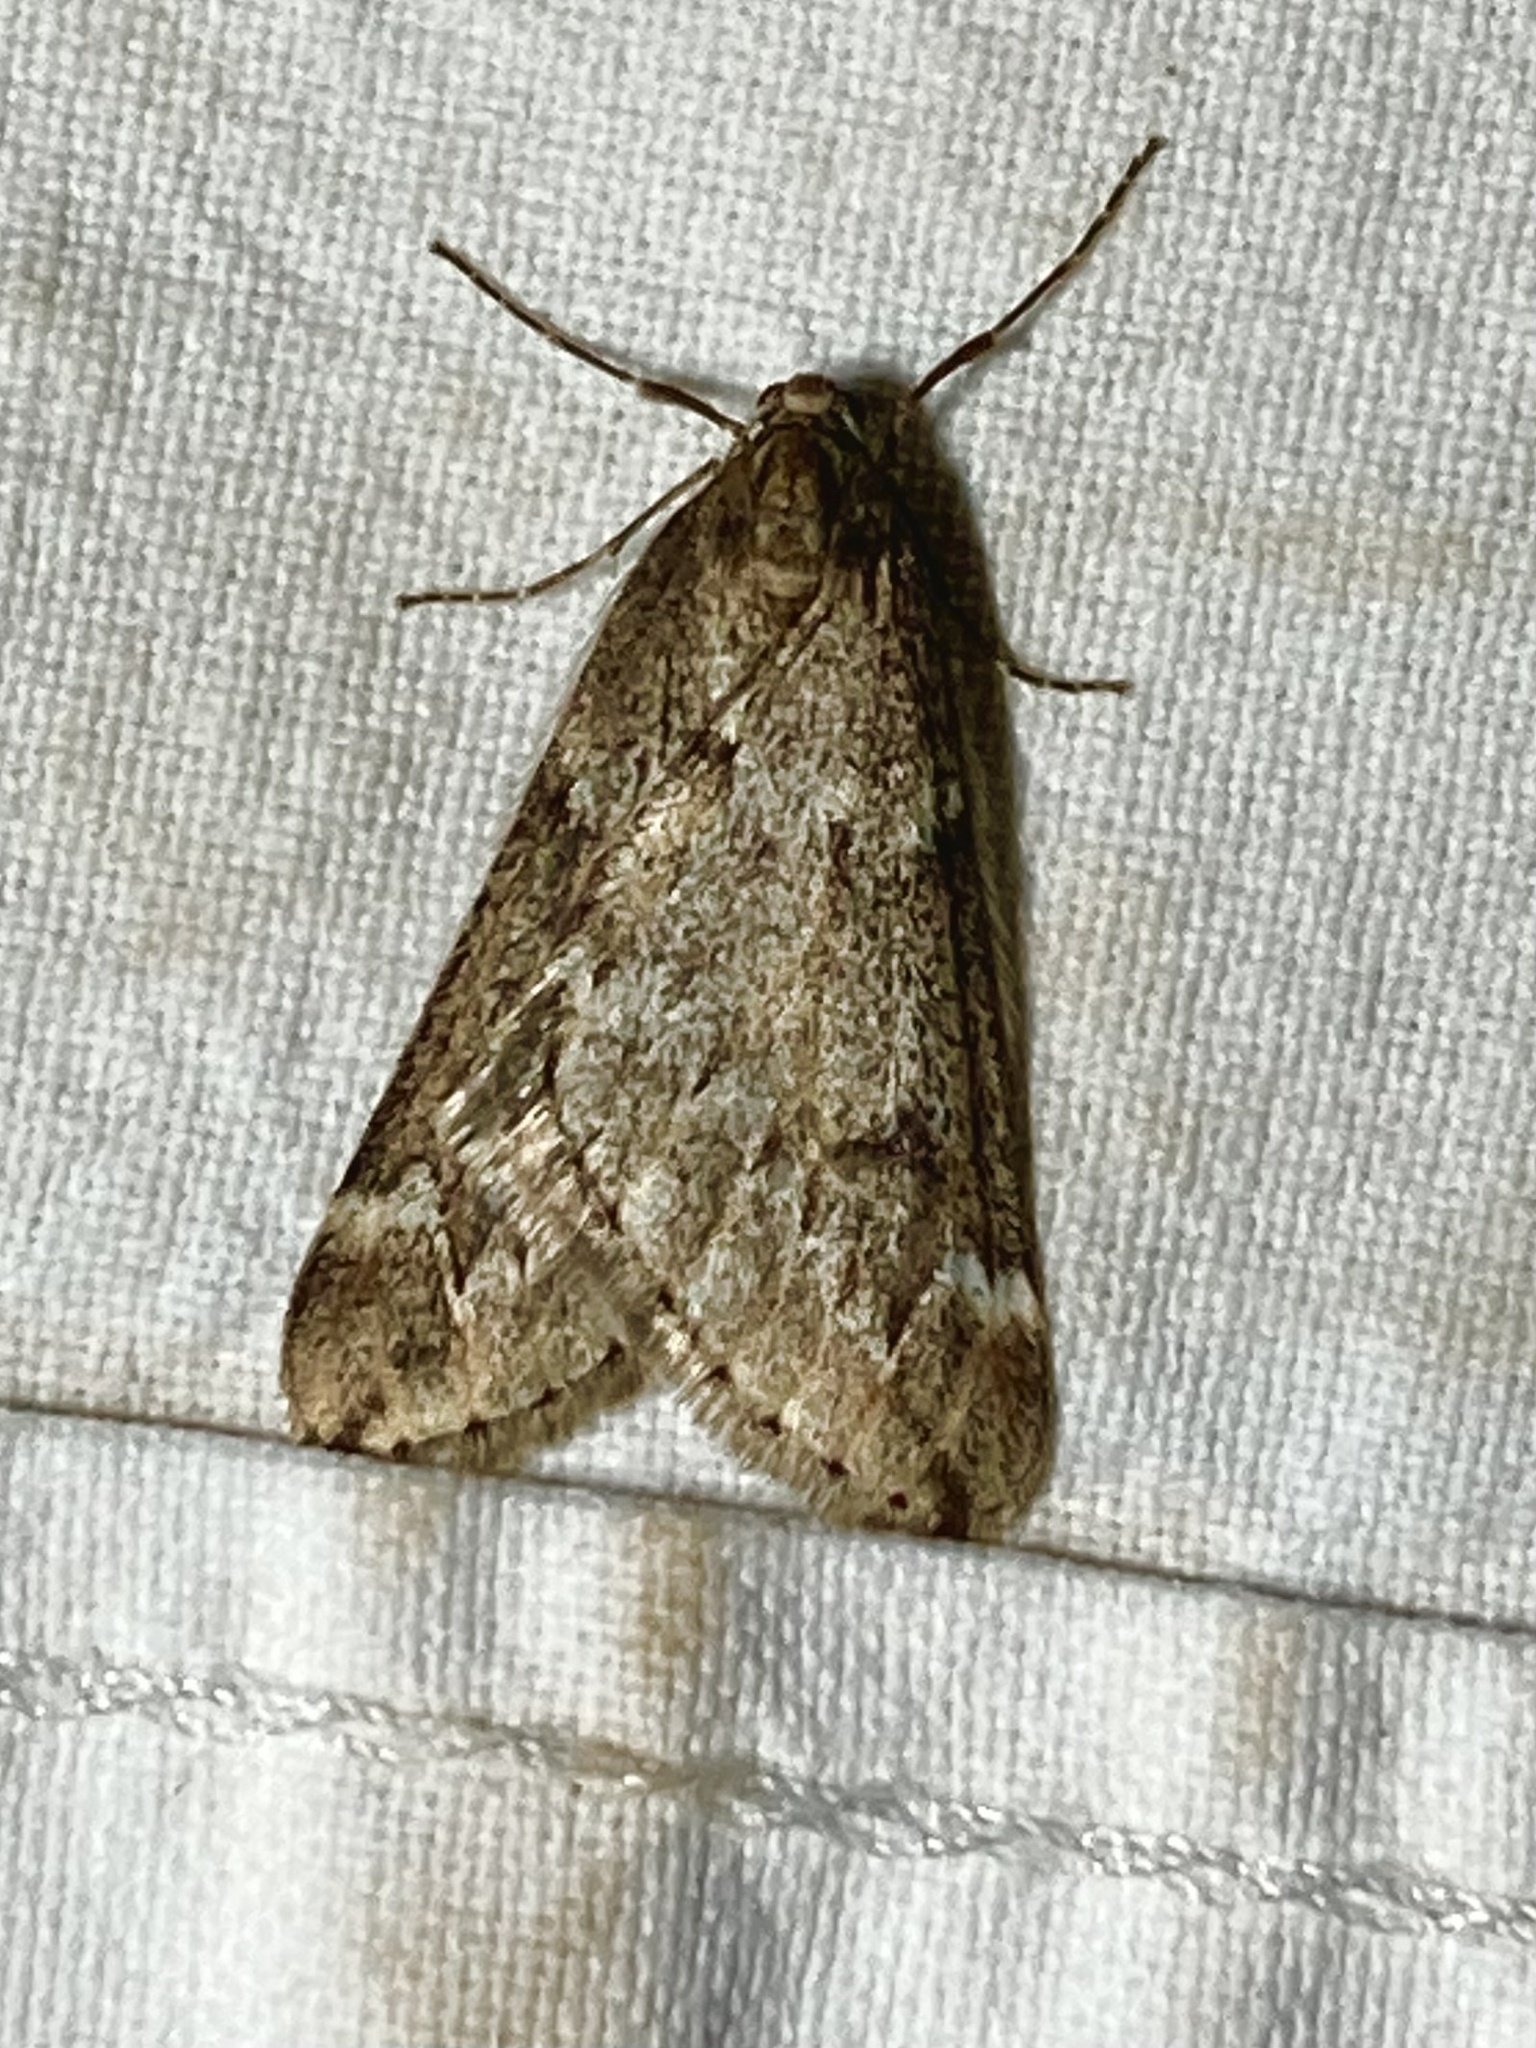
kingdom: Animalia
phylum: Arthropoda
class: Insecta
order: Lepidoptera
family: Geometridae
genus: Alsophila
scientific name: Alsophila aescularia
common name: March moth
